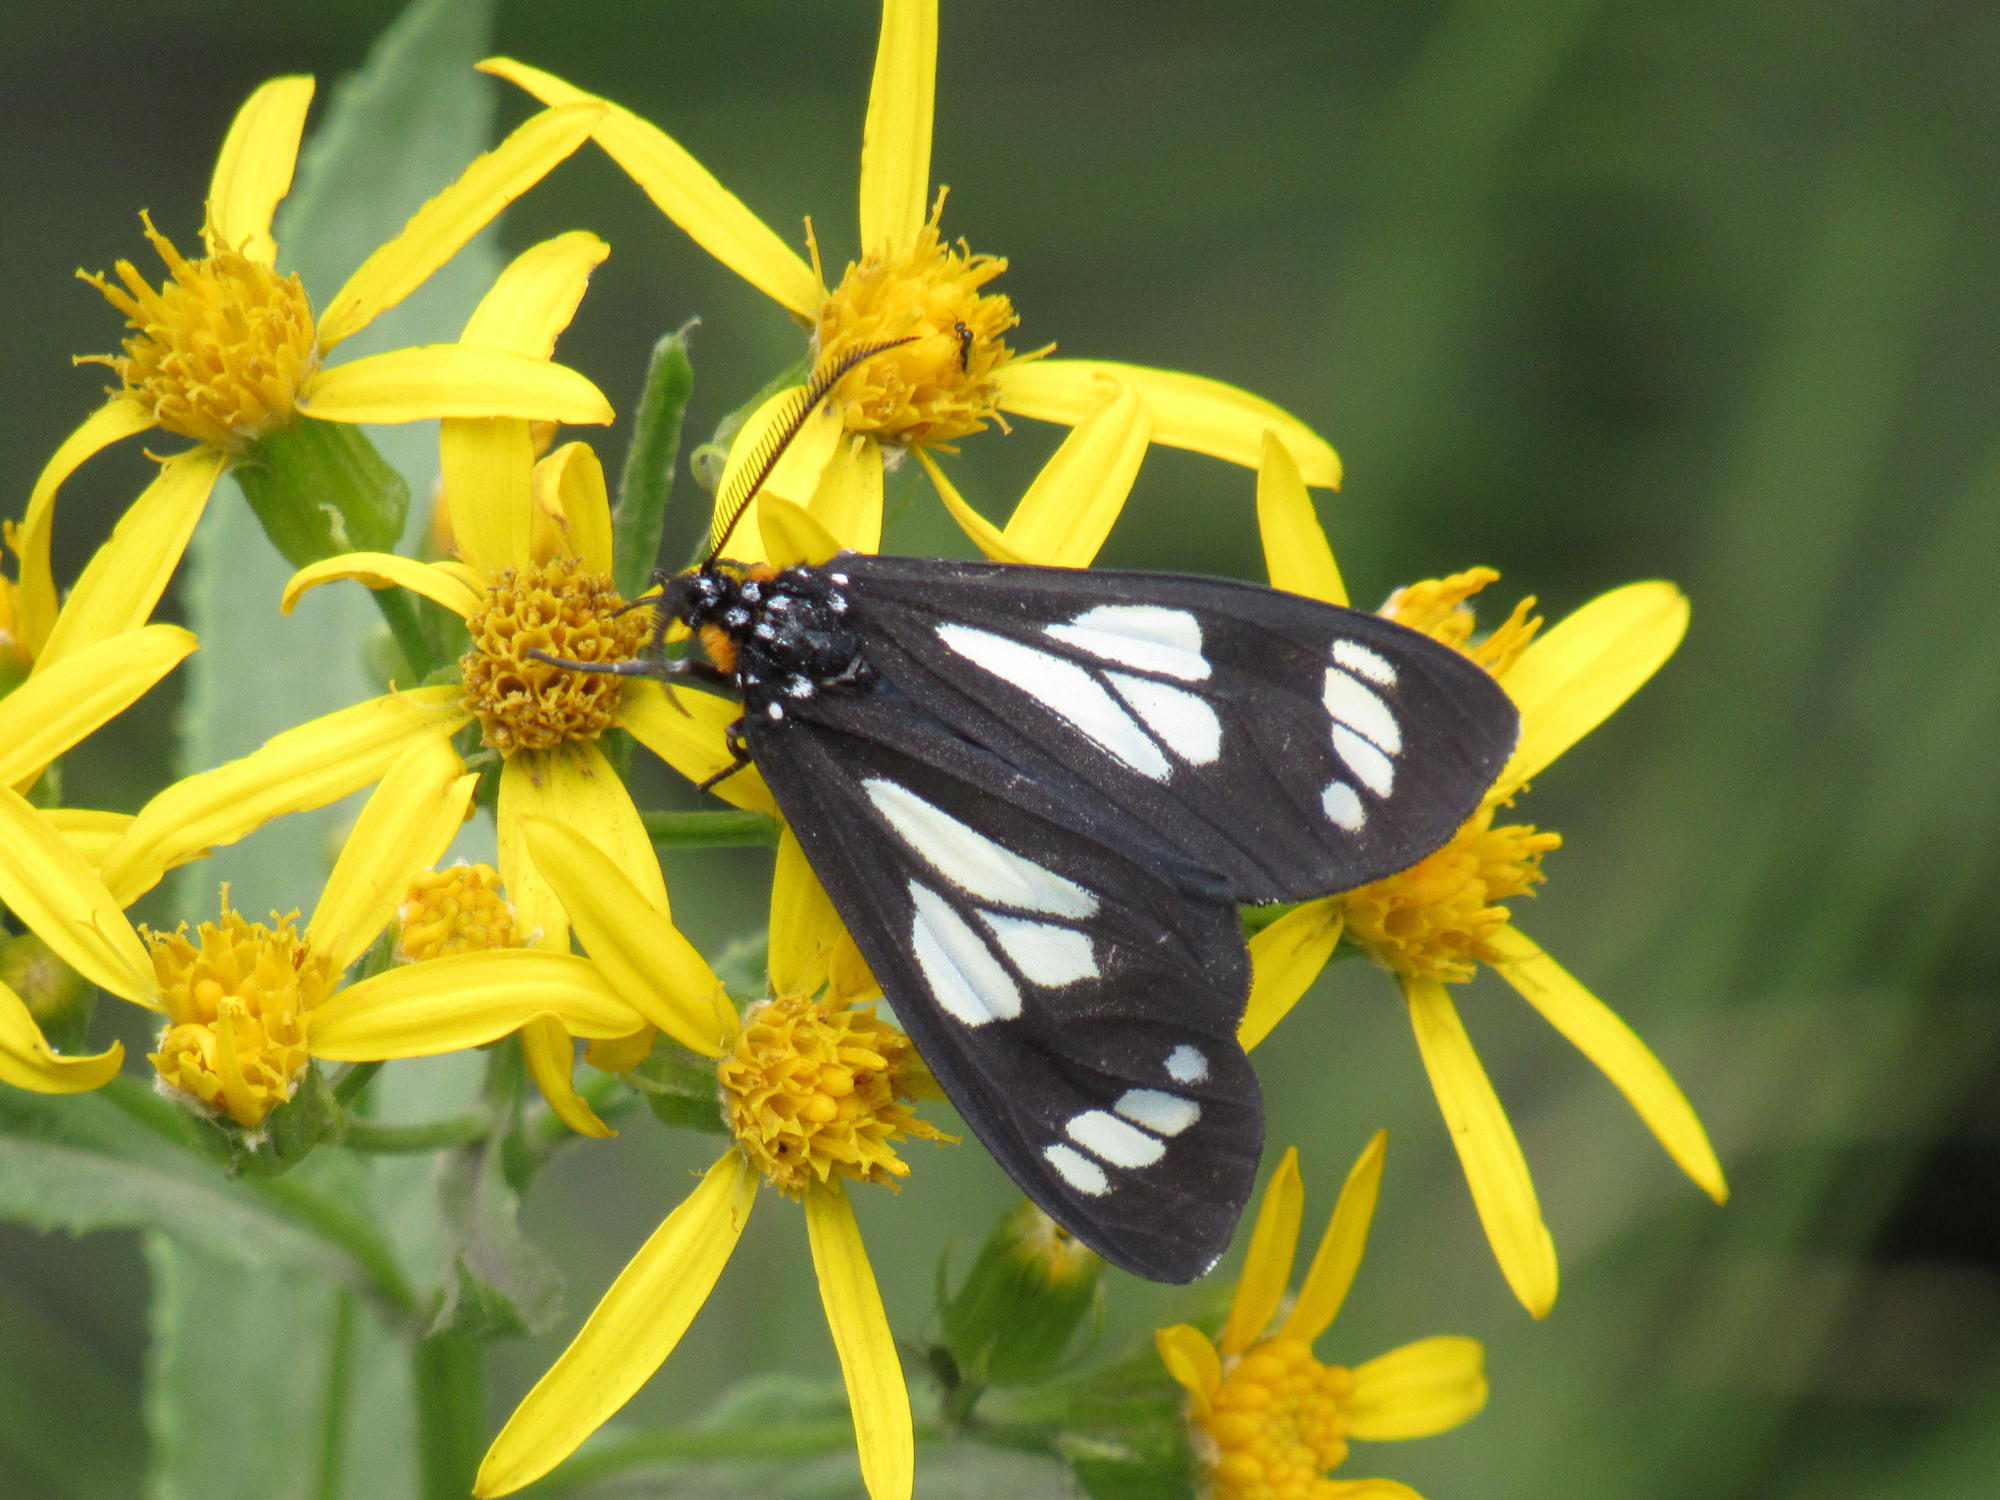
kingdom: Animalia
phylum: Arthropoda
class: Insecta
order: Lepidoptera
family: Erebidae
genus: Gnophaela
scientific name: Gnophaela vermiculata
